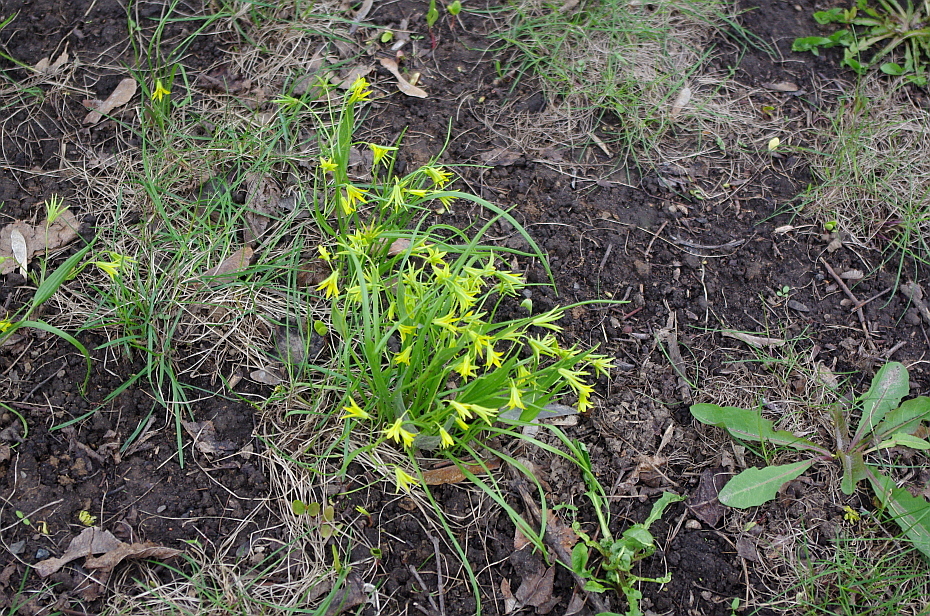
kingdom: Plantae
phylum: Tracheophyta
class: Liliopsida
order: Liliales
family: Liliaceae
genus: Gagea
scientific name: Gagea minima
